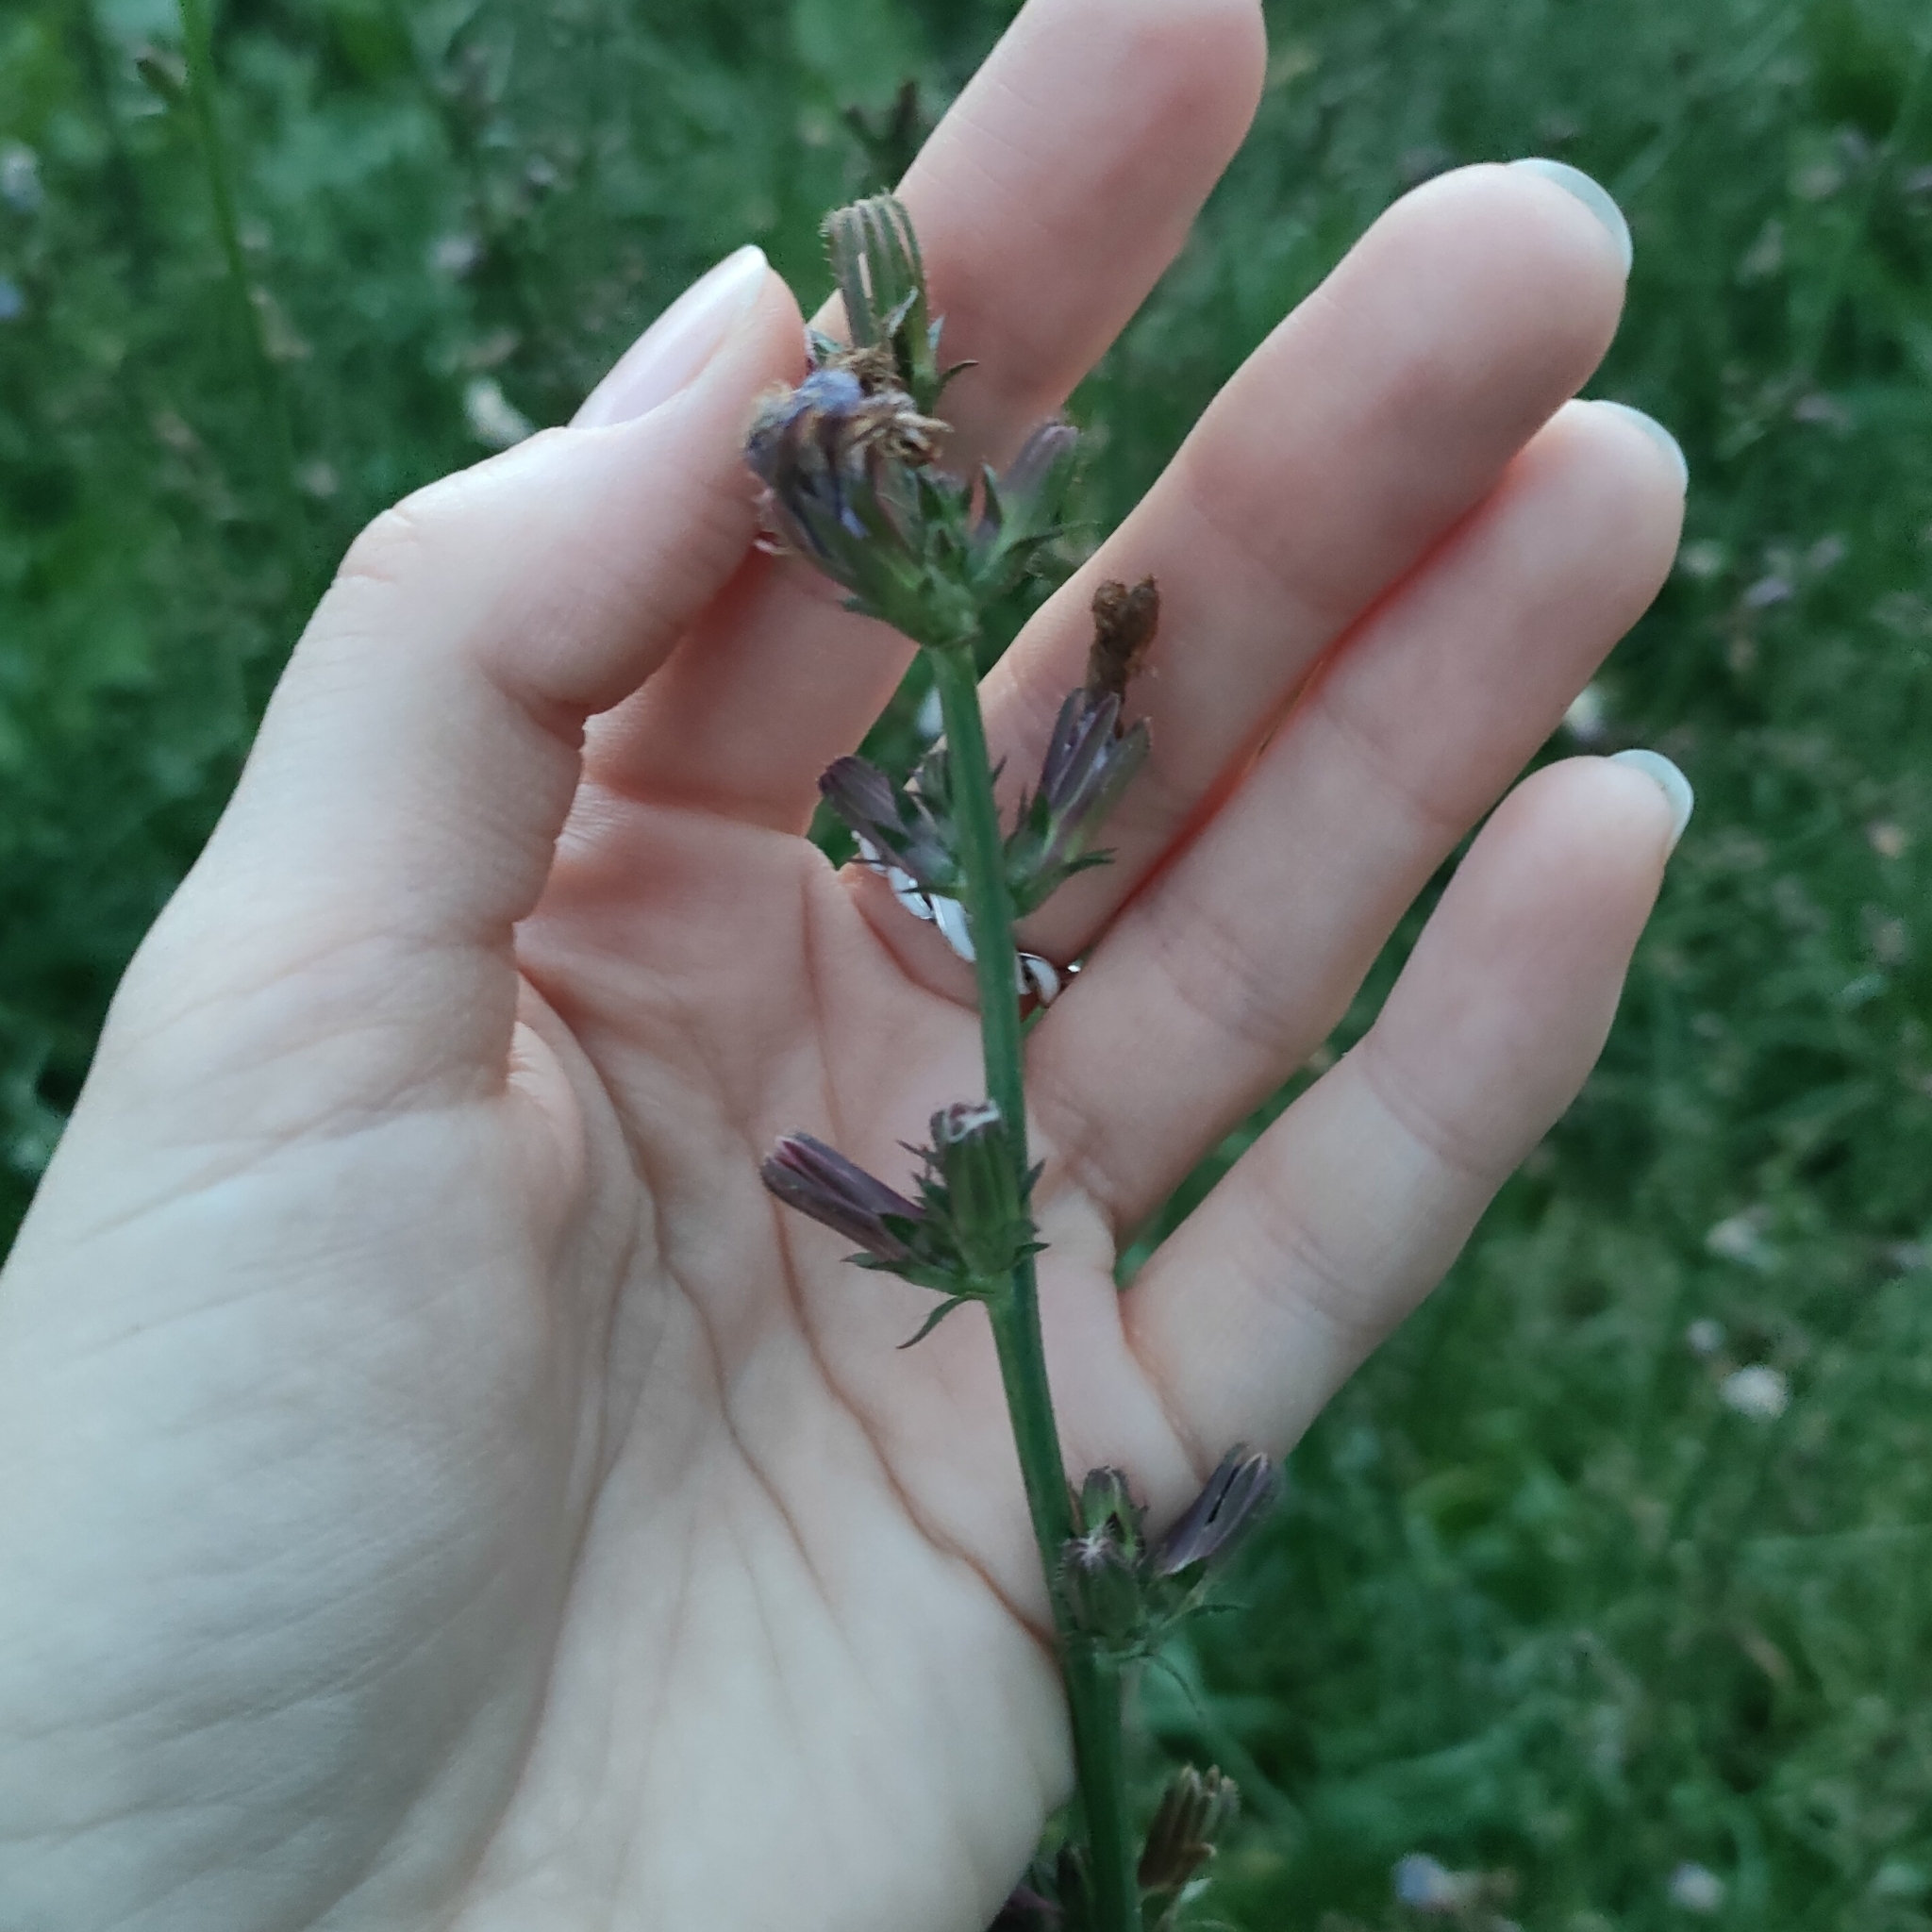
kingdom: Plantae
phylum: Tracheophyta
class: Magnoliopsida
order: Asterales
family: Asteraceae
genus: Cichorium
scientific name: Cichorium intybus
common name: Chicory
